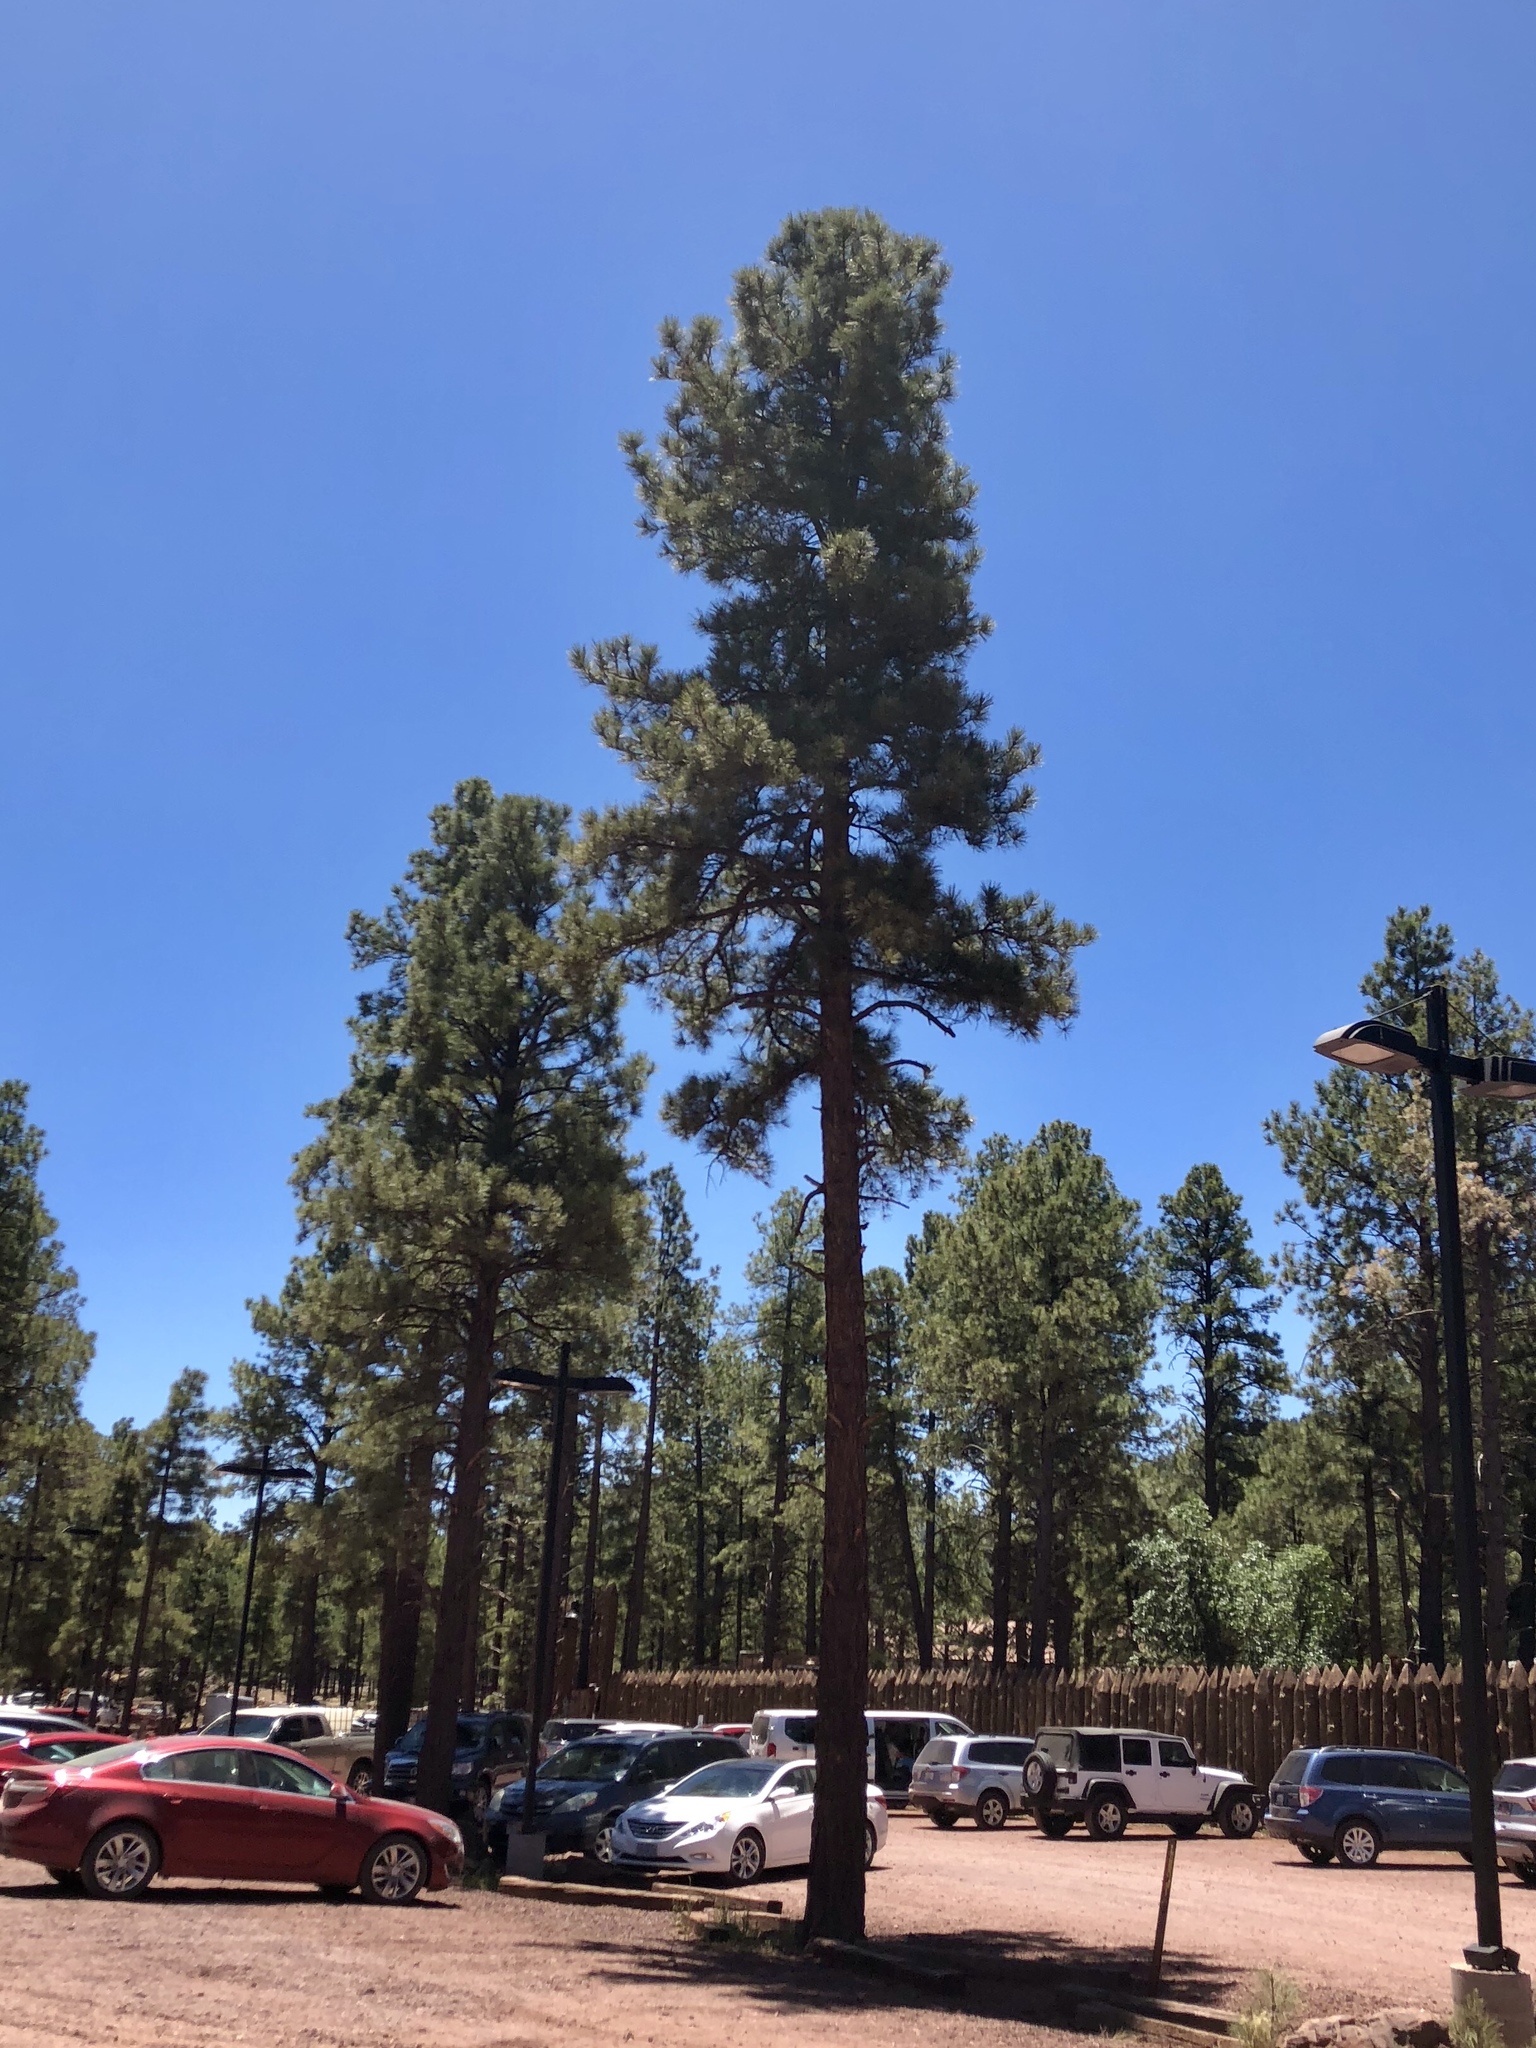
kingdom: Plantae
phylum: Tracheophyta
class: Pinopsida
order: Pinales
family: Pinaceae
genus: Pinus
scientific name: Pinus ponderosa
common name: Western yellow-pine
